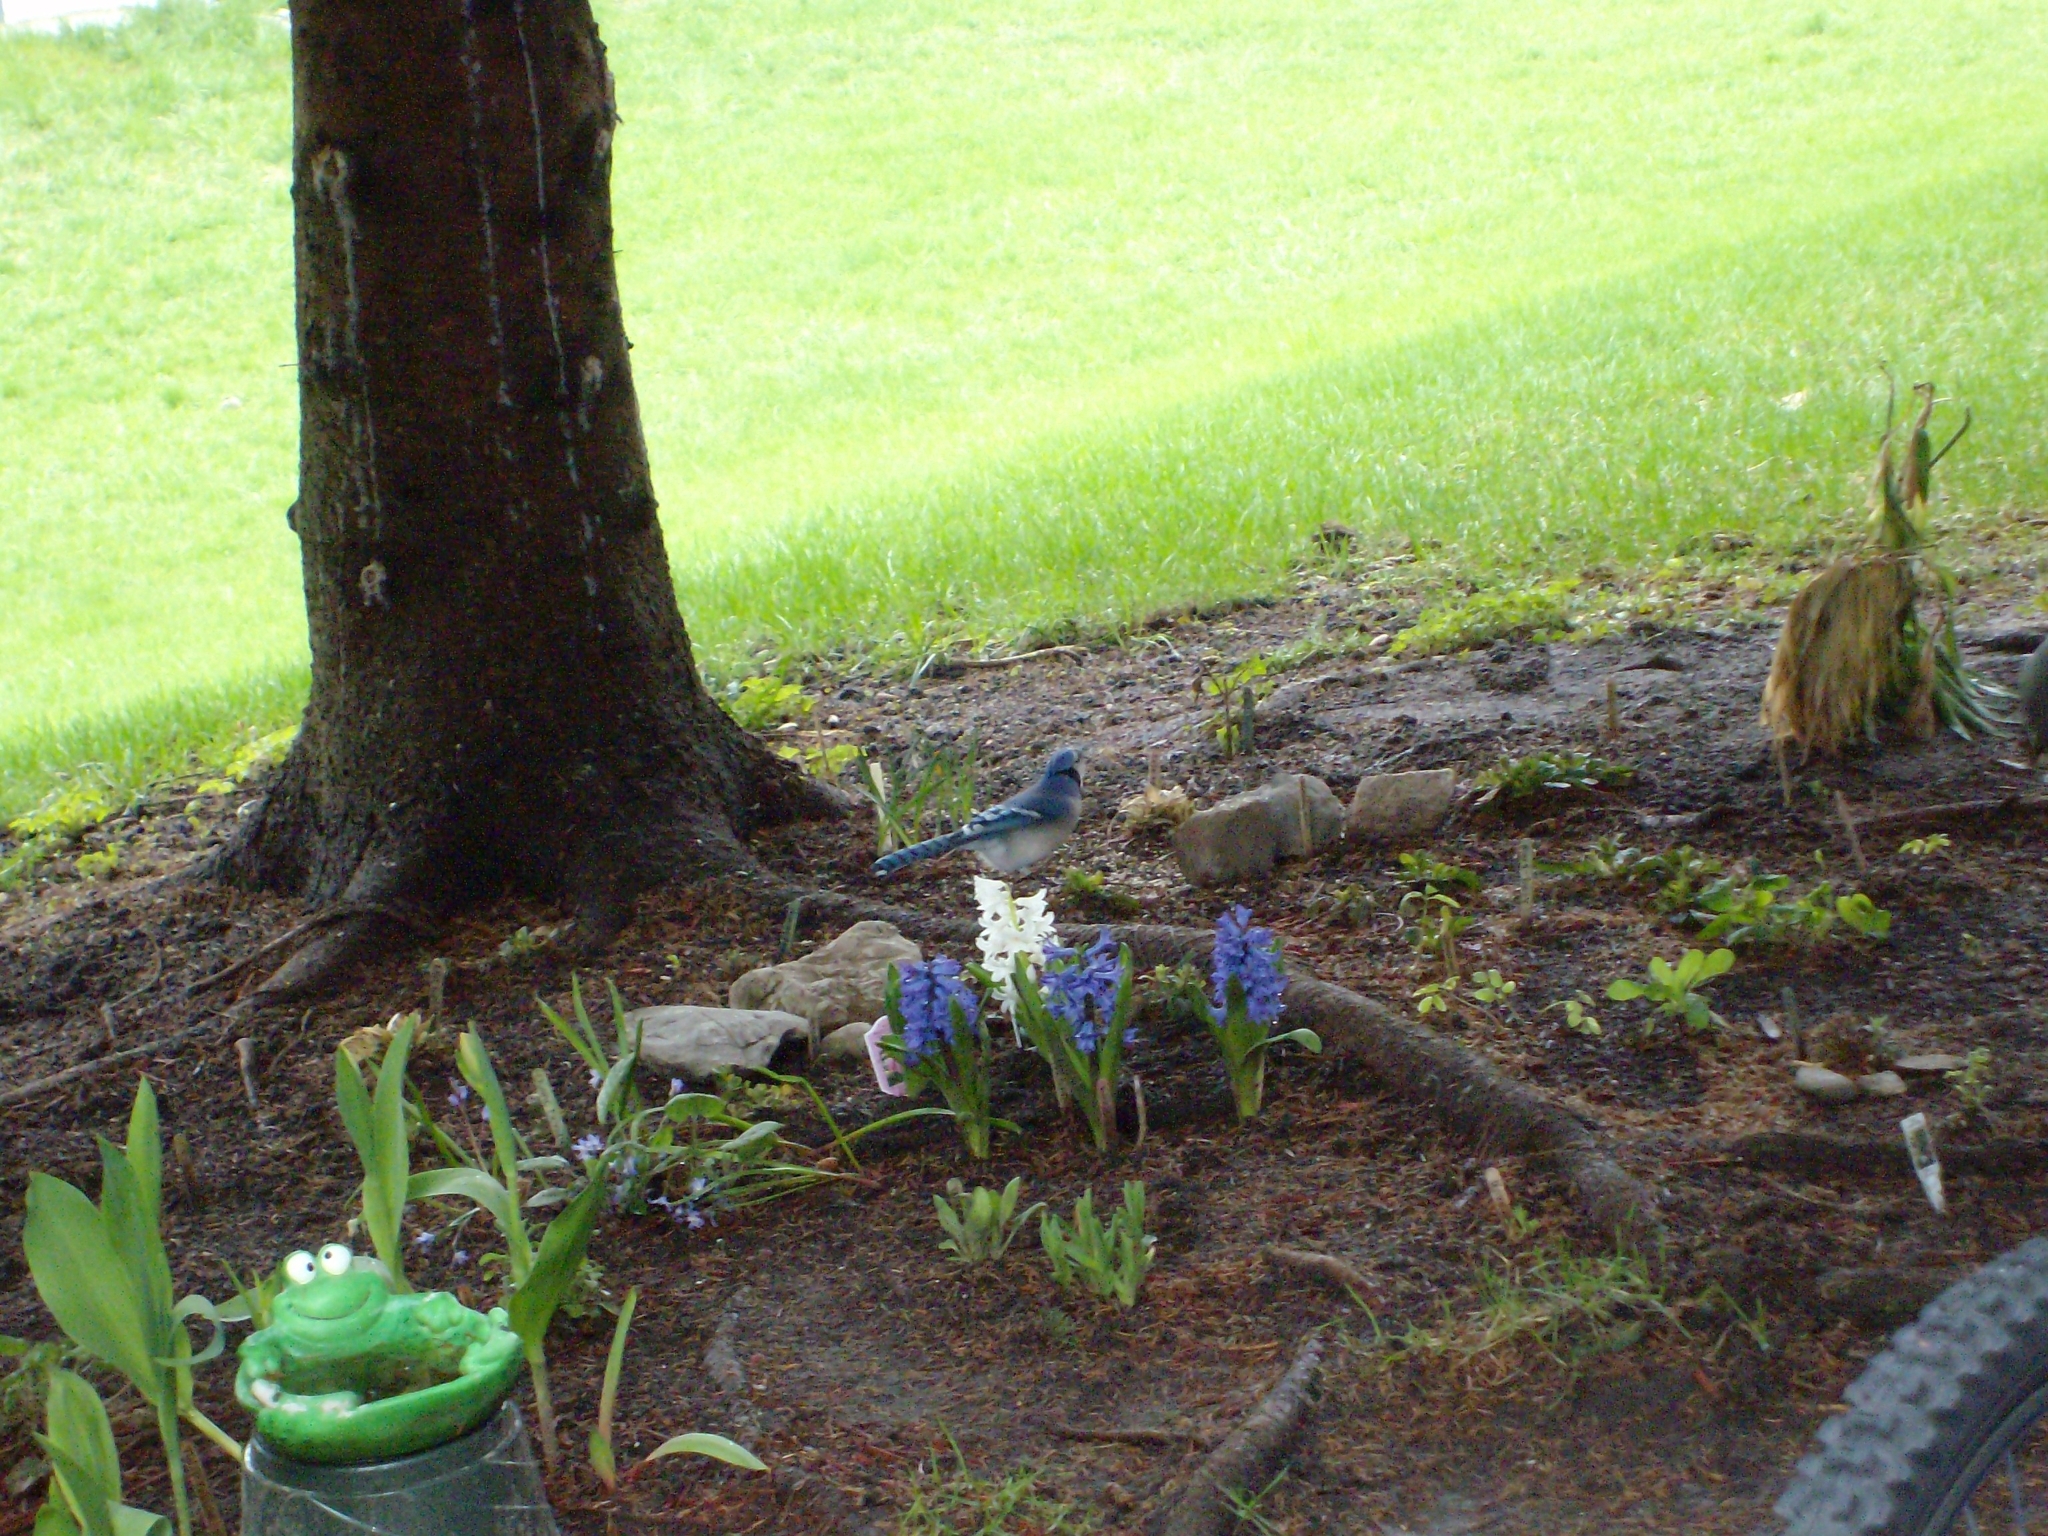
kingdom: Animalia
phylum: Chordata
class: Aves
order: Passeriformes
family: Corvidae
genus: Cyanocitta
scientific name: Cyanocitta cristata
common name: Blue jay
